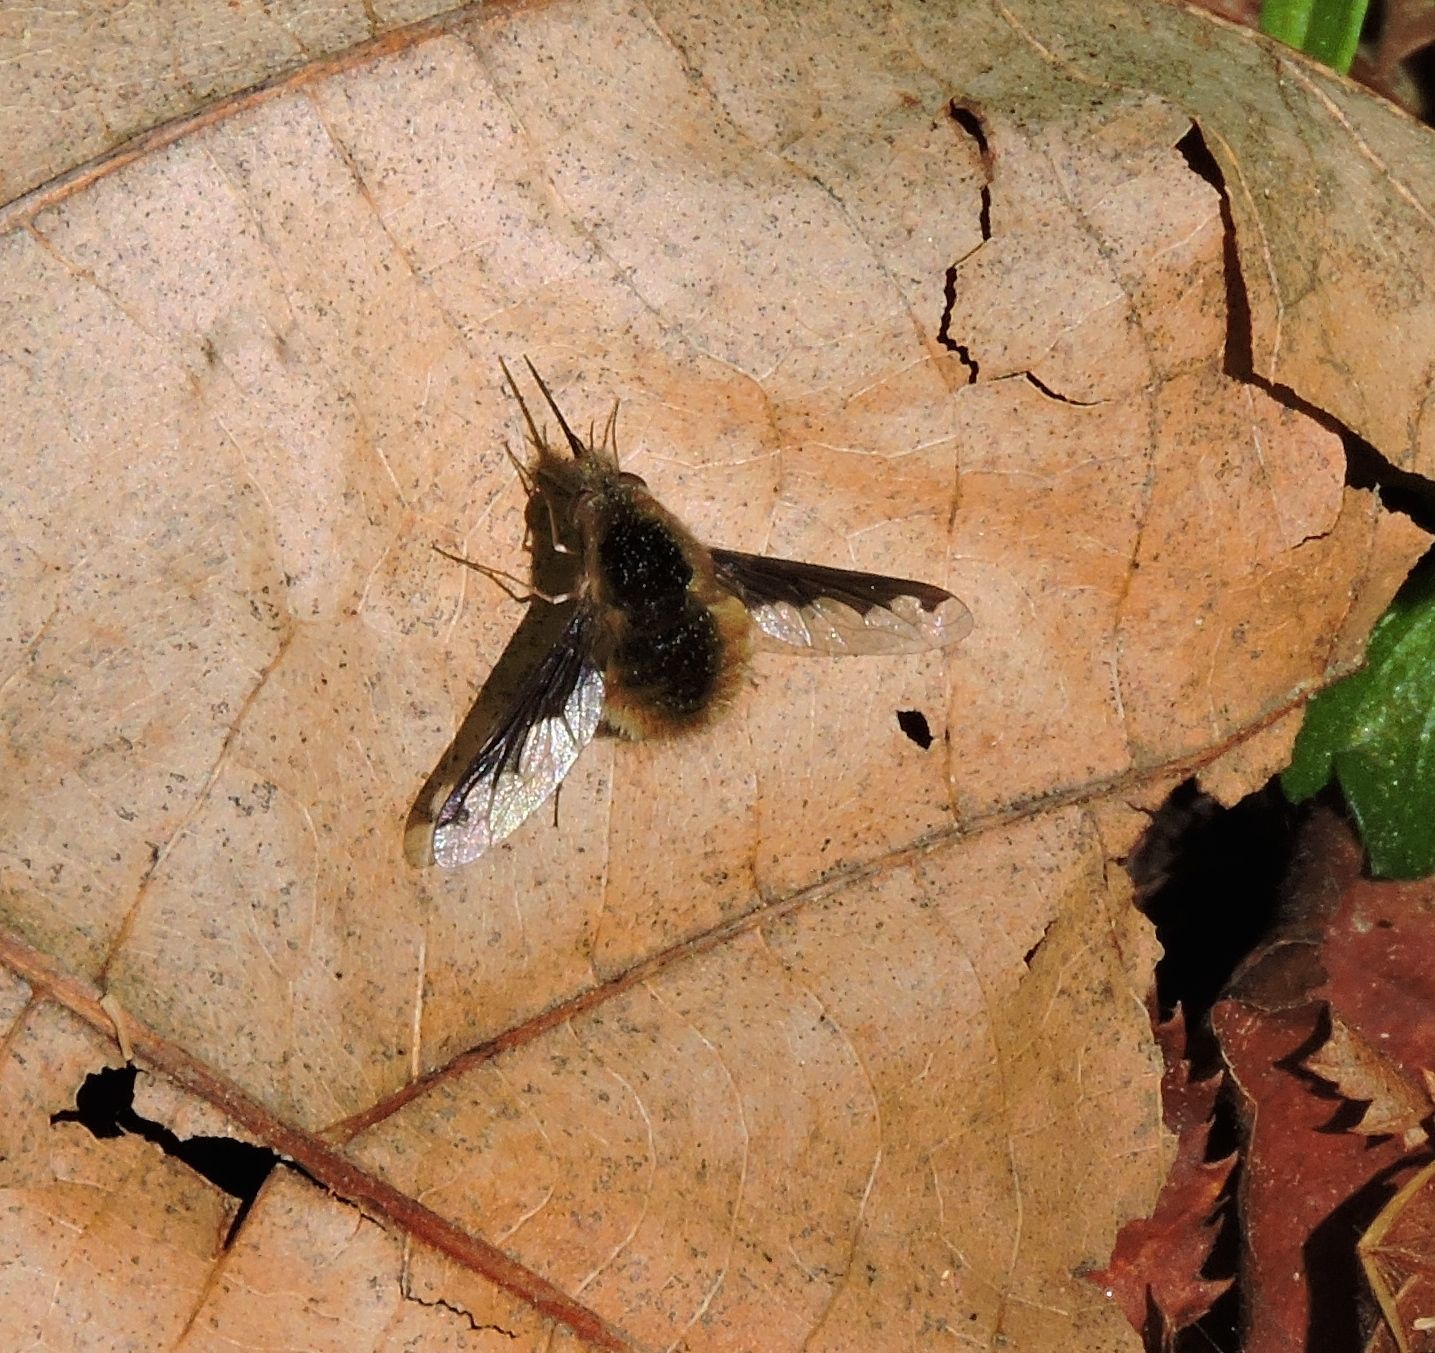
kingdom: Animalia
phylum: Arthropoda
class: Insecta
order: Diptera
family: Bombyliidae
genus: Bombylius
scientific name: Bombylius major
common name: Bee fly
